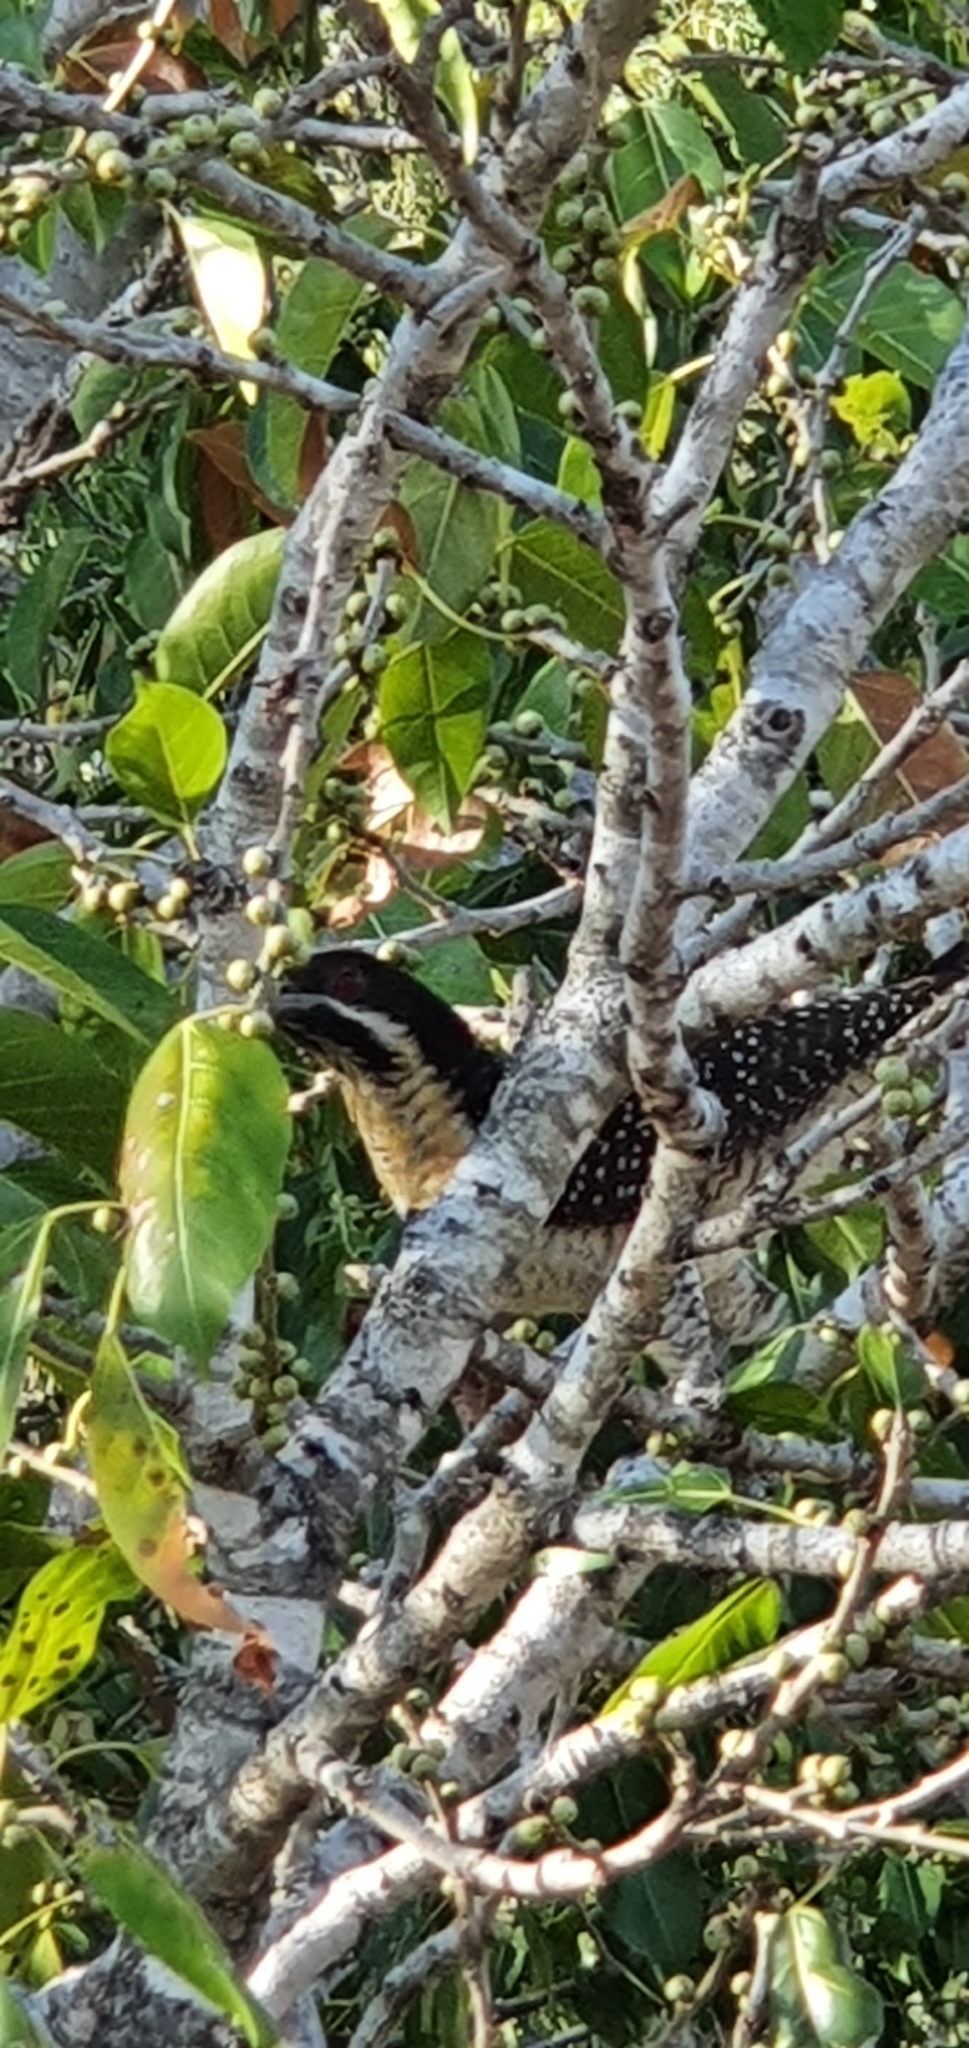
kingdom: Animalia
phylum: Chordata
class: Aves
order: Cuculiformes
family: Cuculidae
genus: Eudynamys
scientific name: Eudynamys orientalis
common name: Pacific koel
